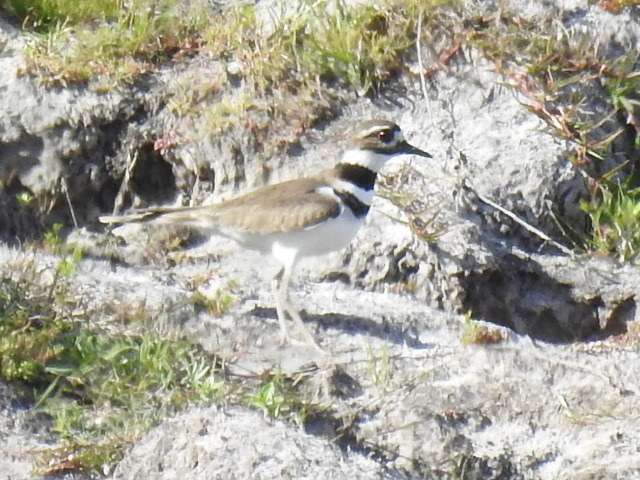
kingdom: Animalia
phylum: Chordata
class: Aves
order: Charadriiformes
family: Charadriidae
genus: Charadrius
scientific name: Charadrius vociferus
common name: Killdeer
